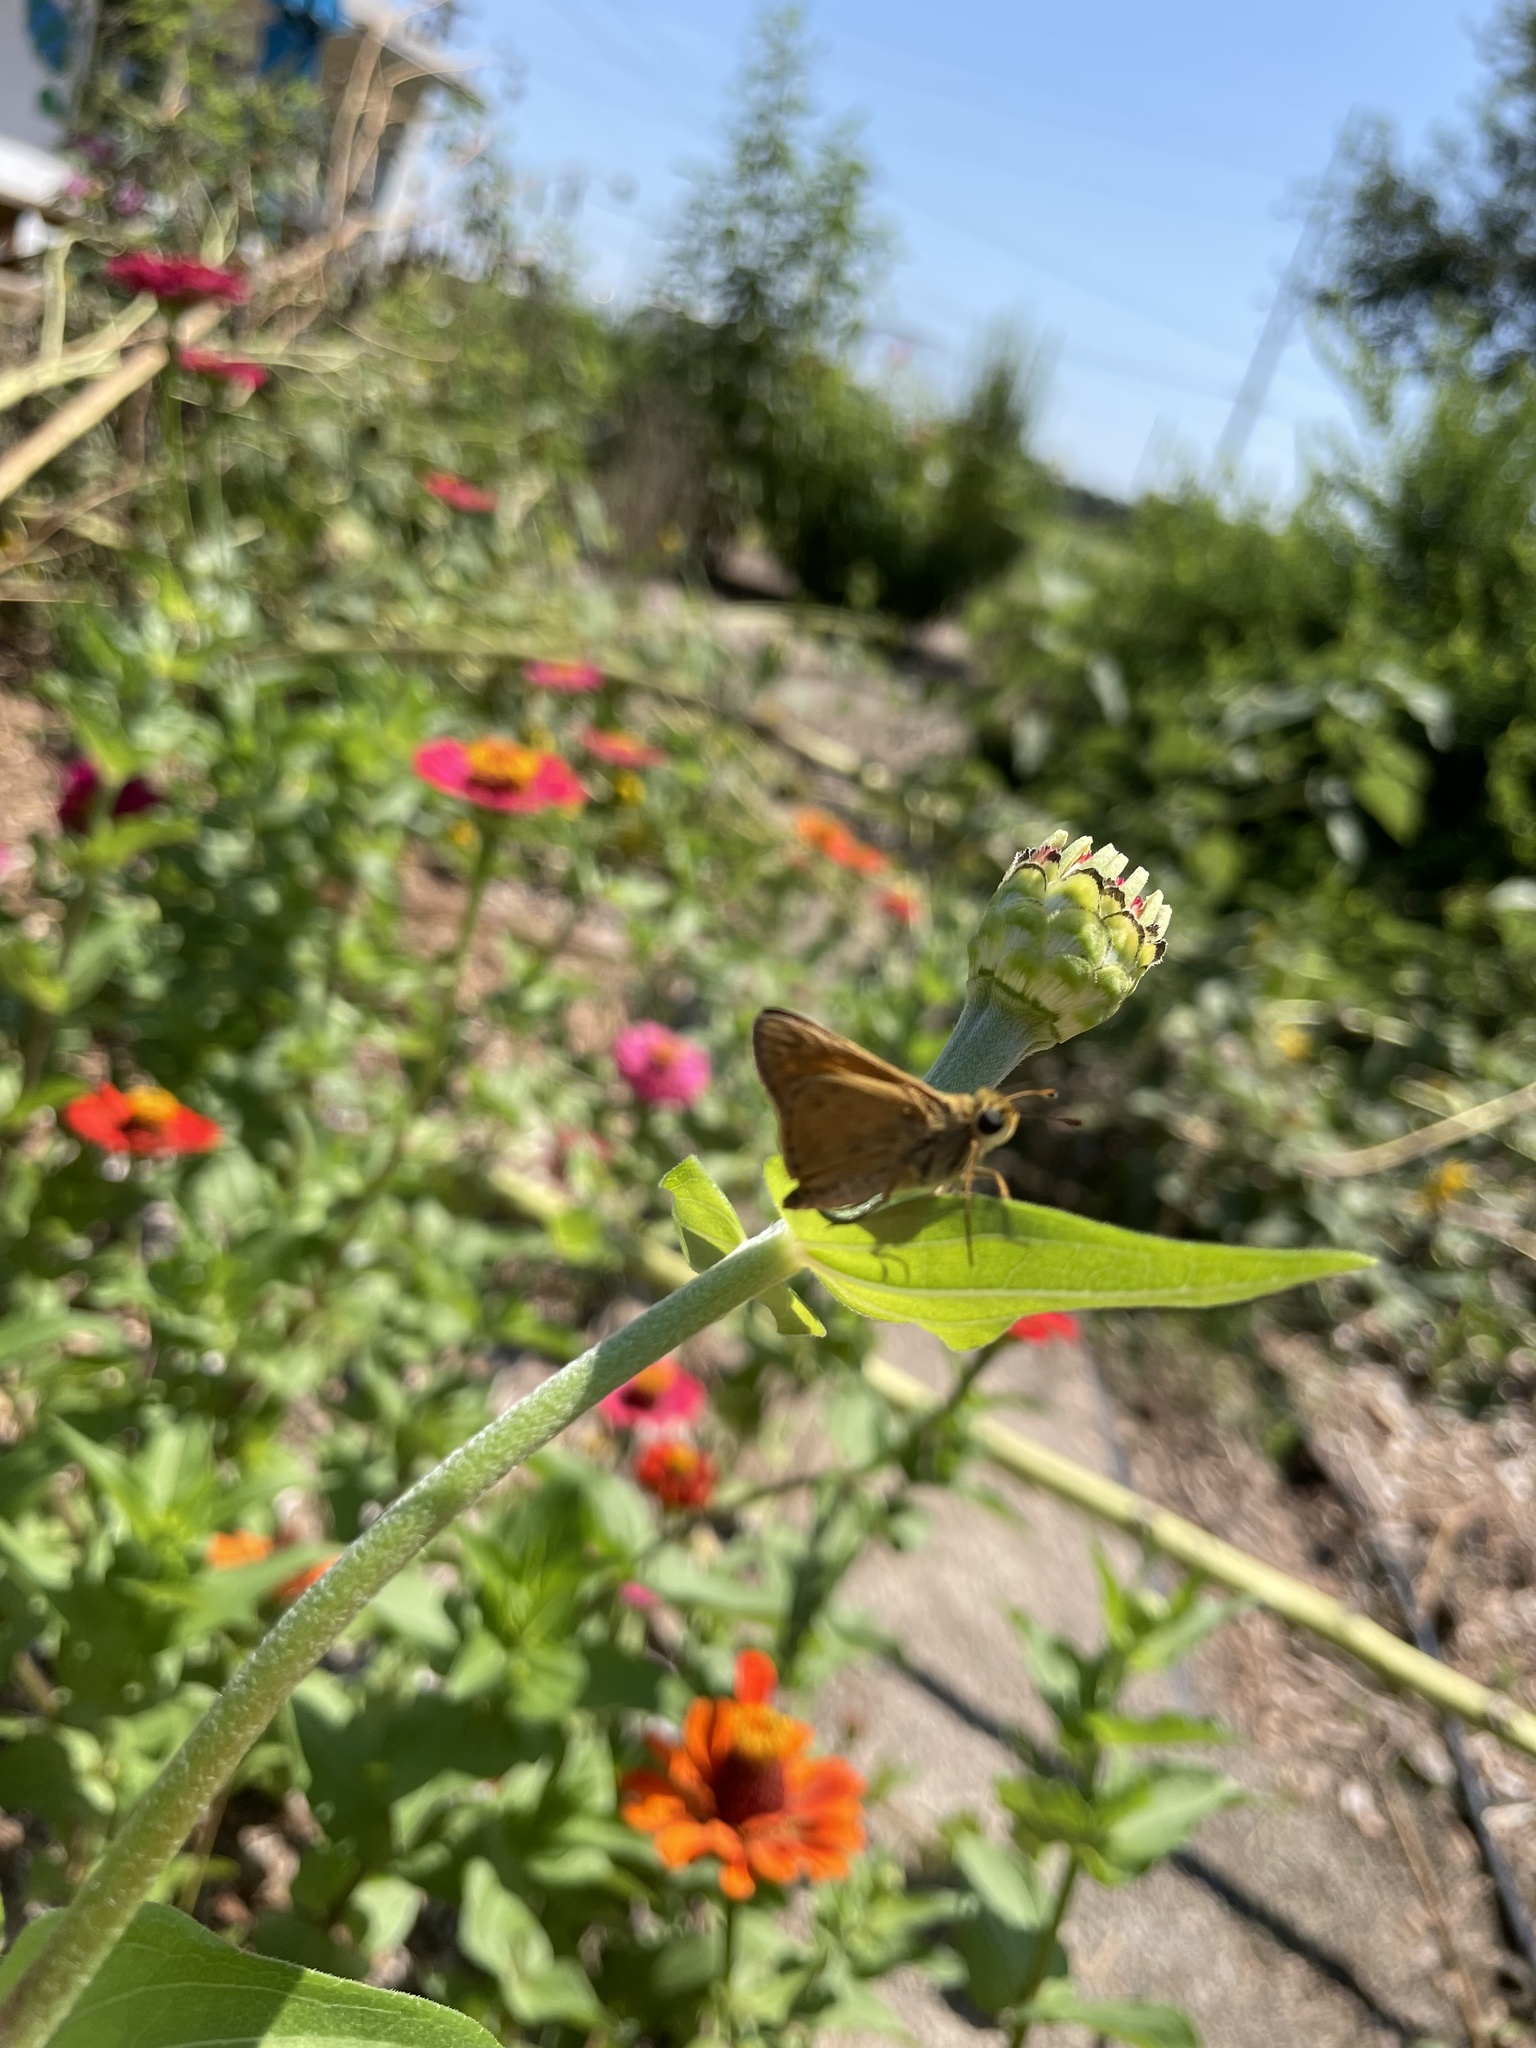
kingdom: Animalia
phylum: Arthropoda
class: Insecta
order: Lepidoptera
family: Hesperiidae
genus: Atalopedes
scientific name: Atalopedes
